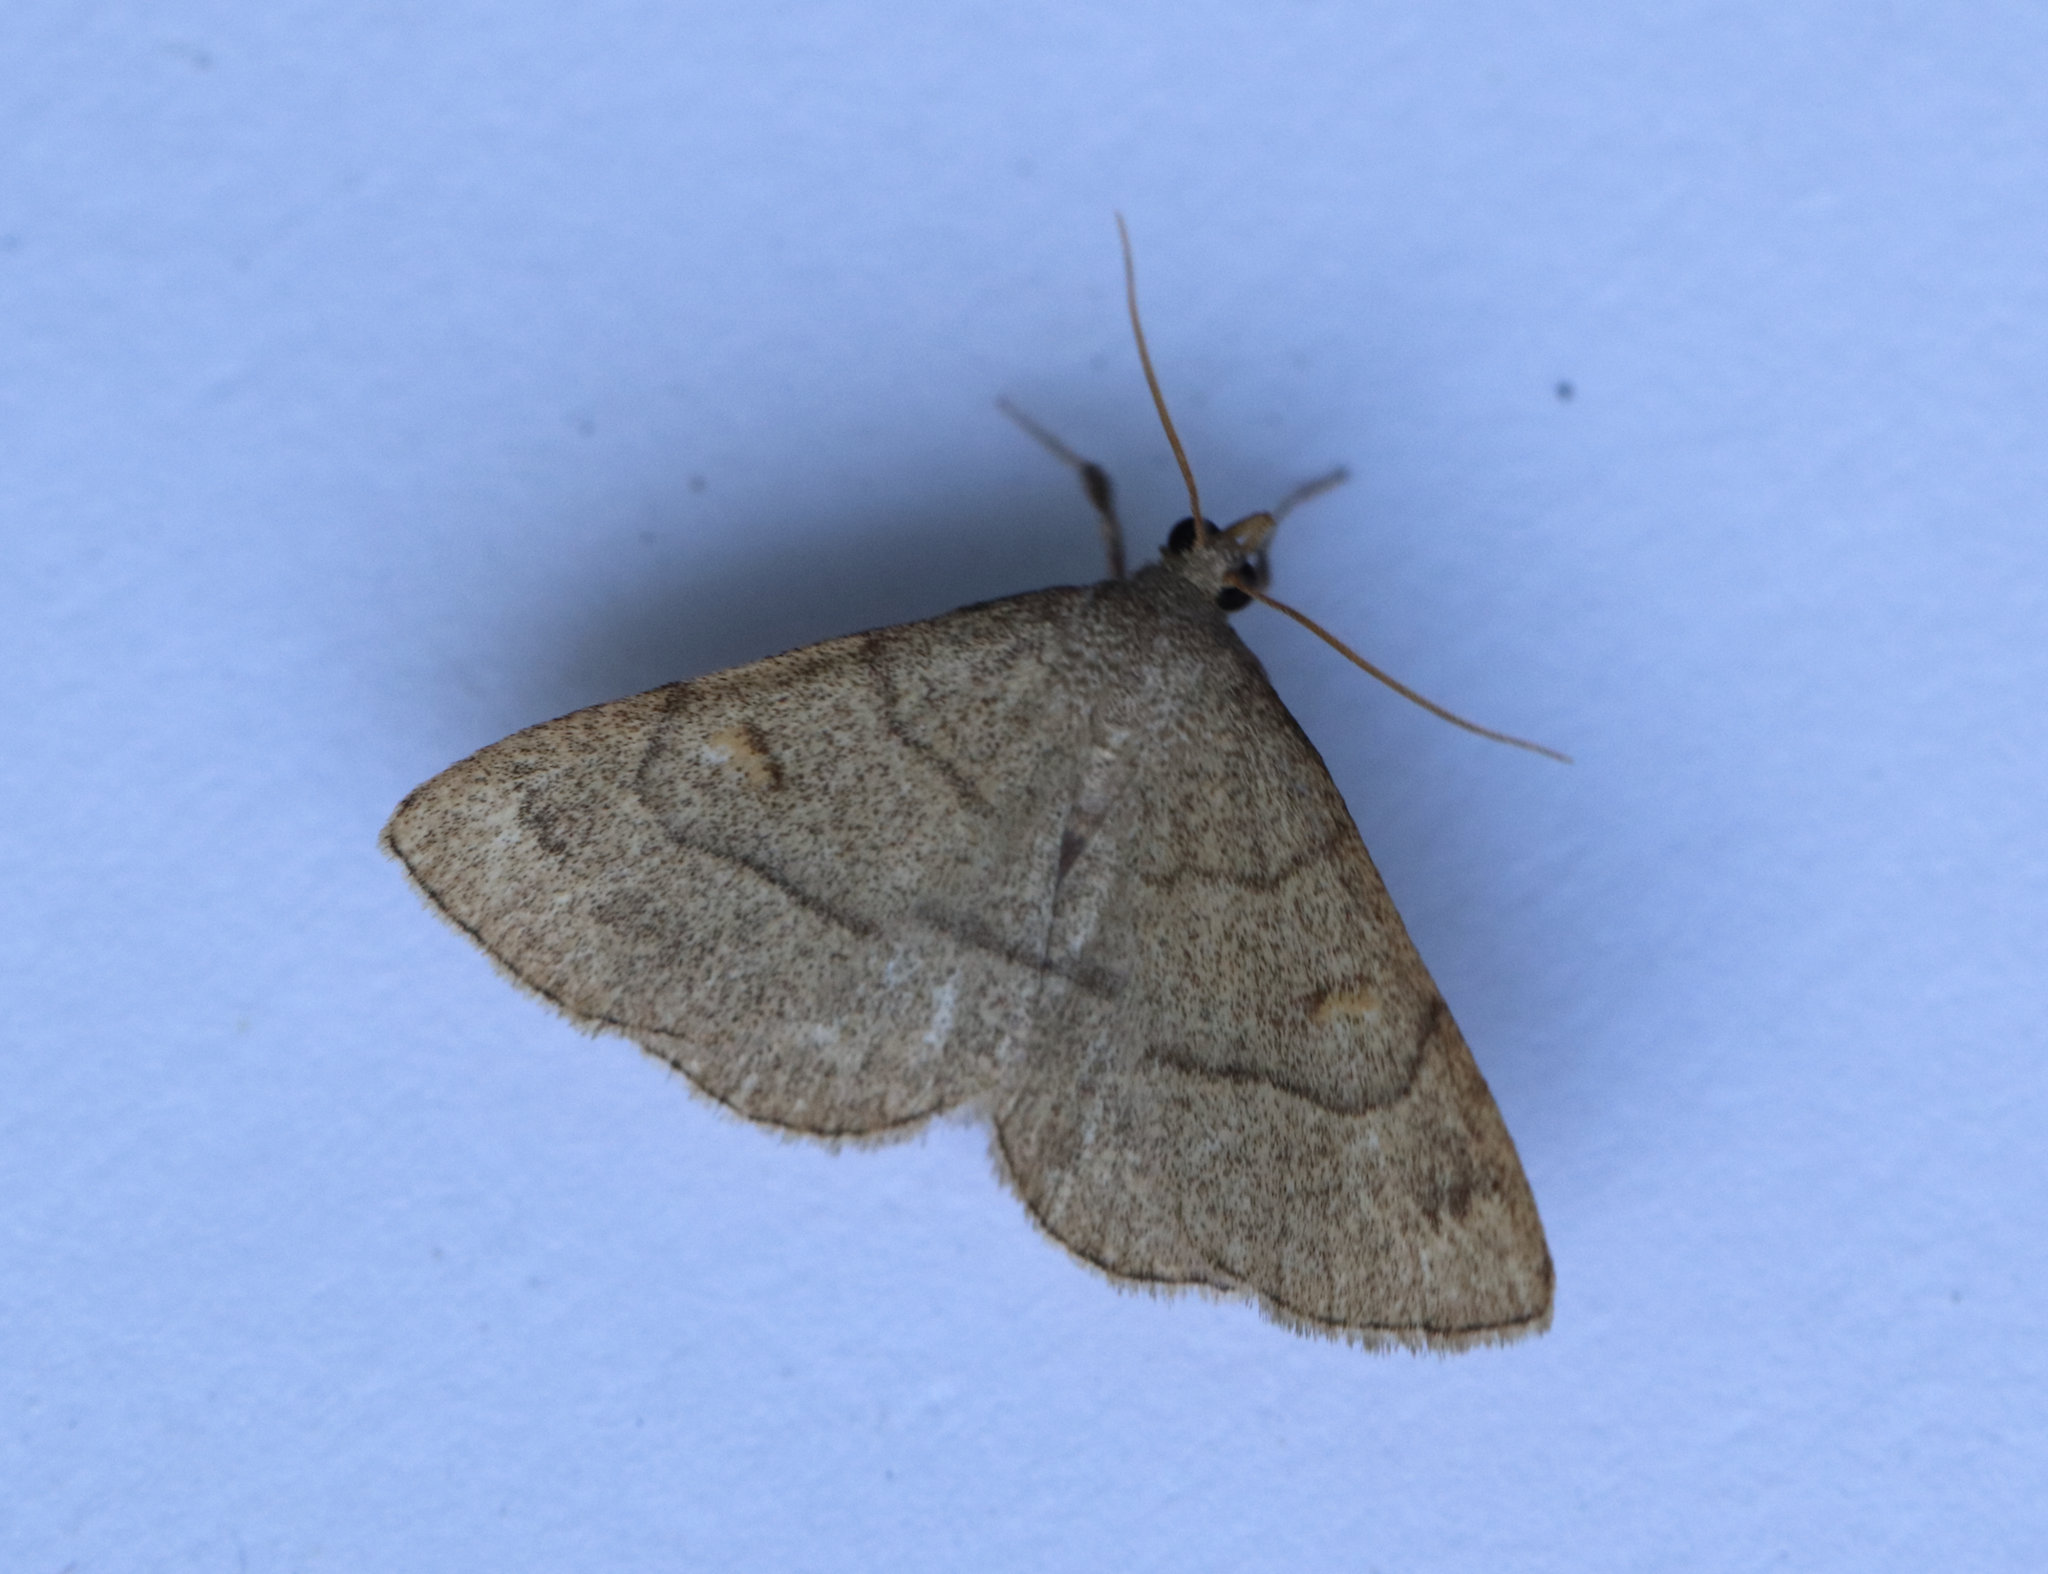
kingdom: Animalia
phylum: Arthropoda
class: Insecta
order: Lepidoptera
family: Erebidae
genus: Paracolax
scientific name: Paracolax tristalis
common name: Clay fan-foot
